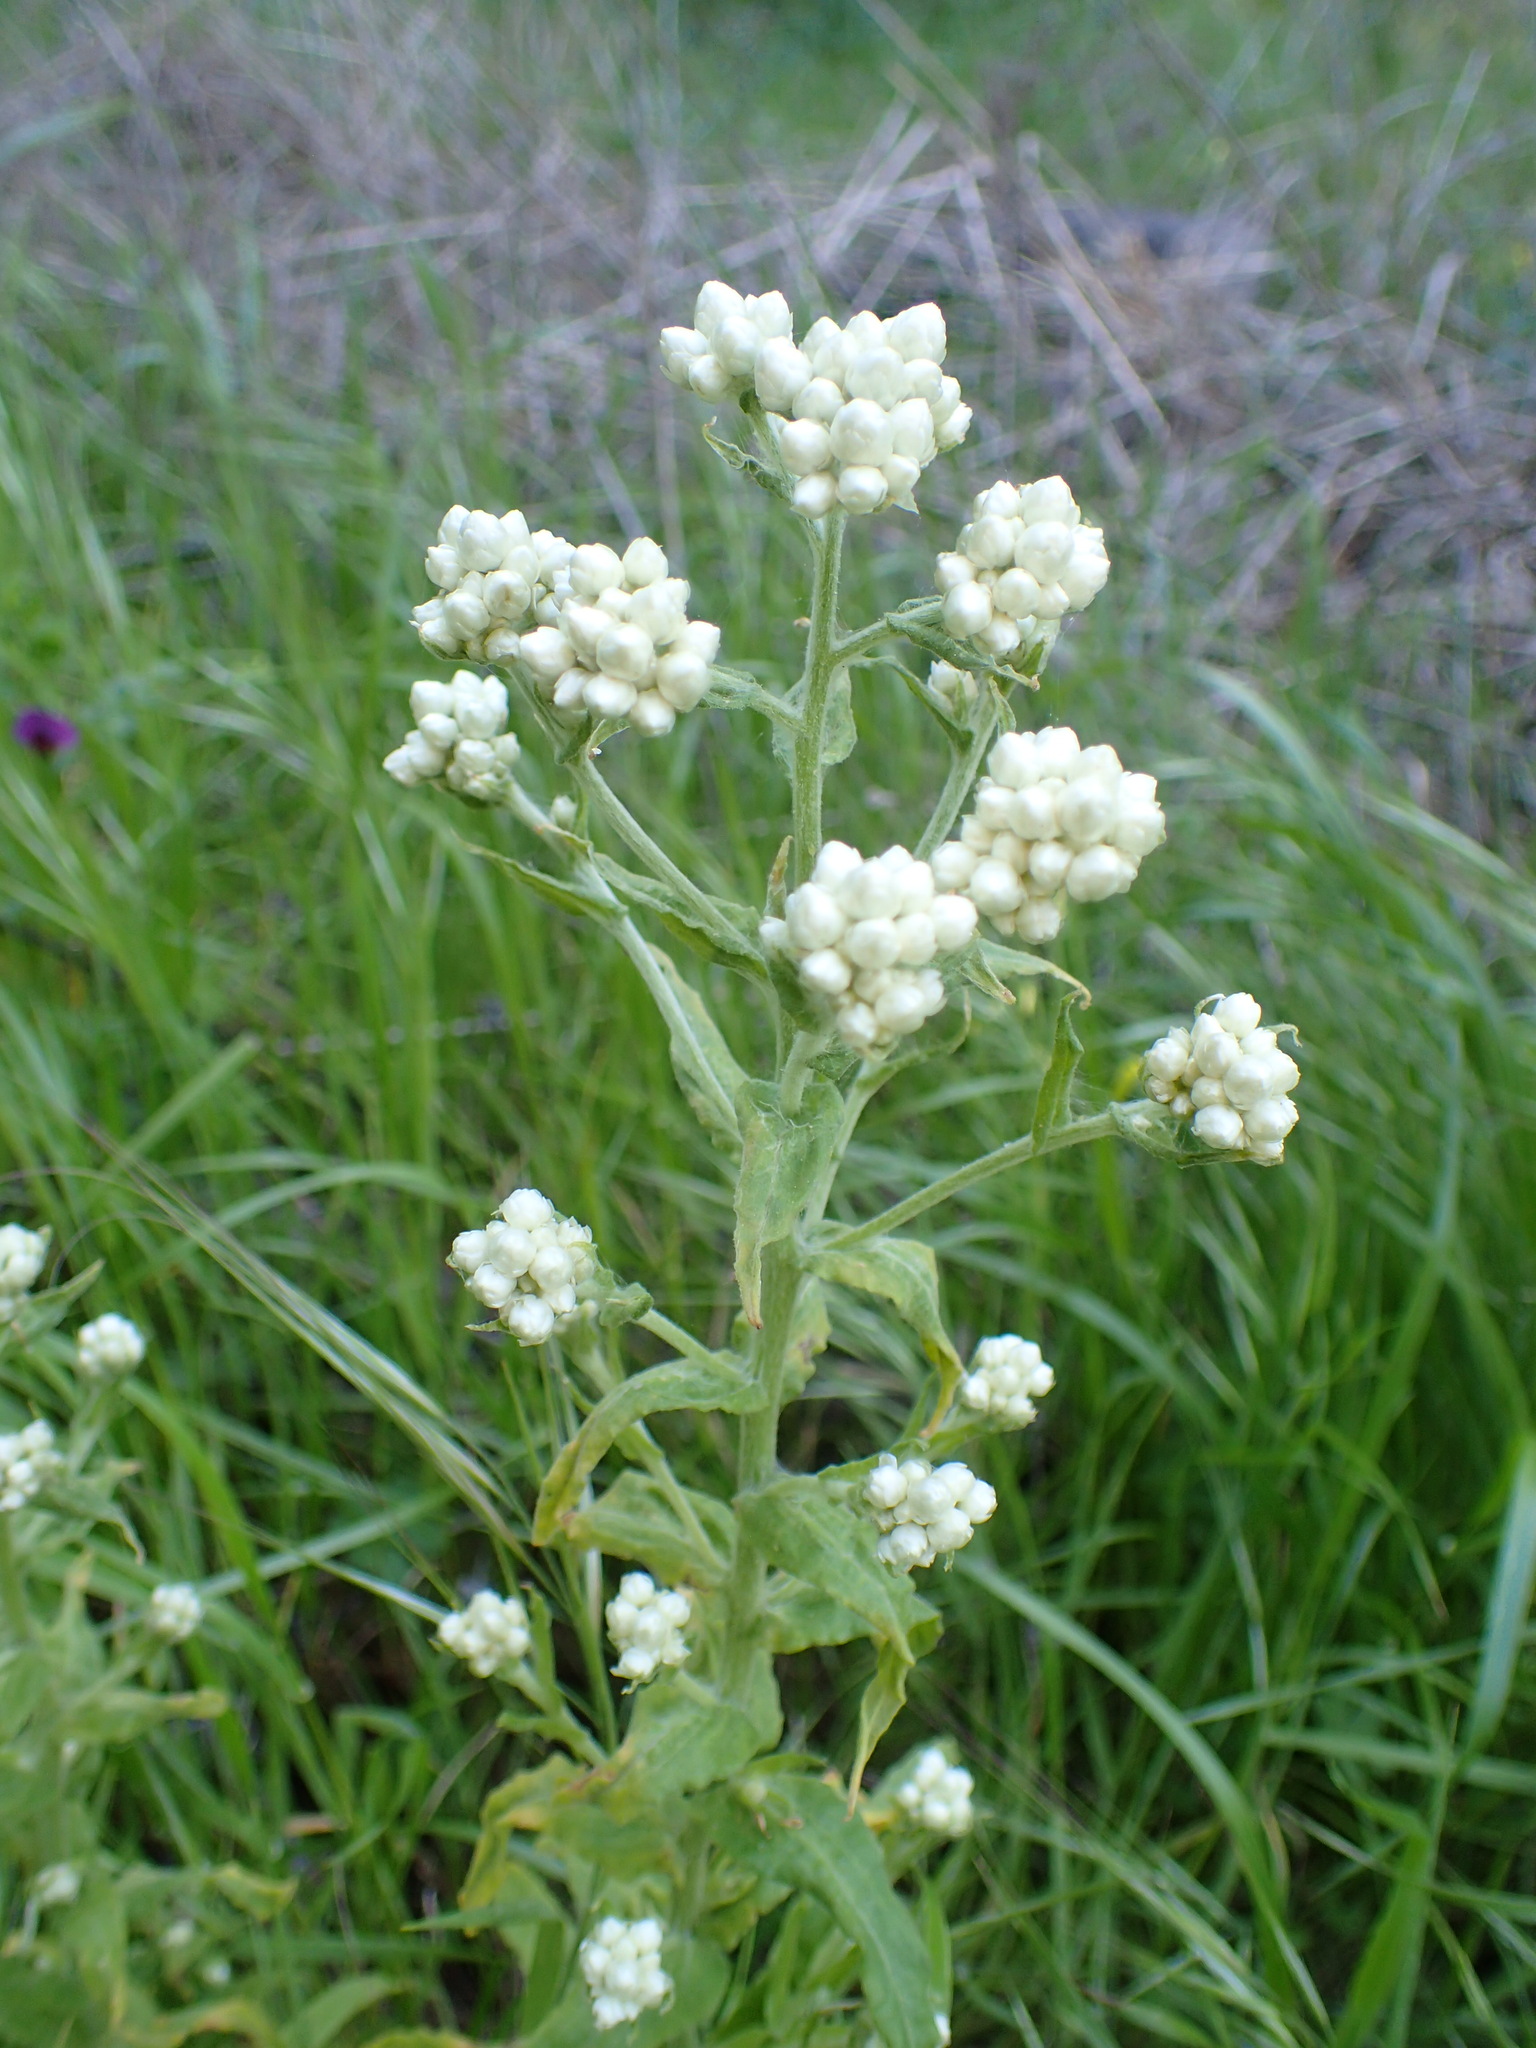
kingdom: Plantae
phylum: Tracheophyta
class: Magnoliopsida
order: Asterales
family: Asteraceae
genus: Pseudognaphalium
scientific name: Pseudognaphalium californicum
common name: California rabbit-tobacco
